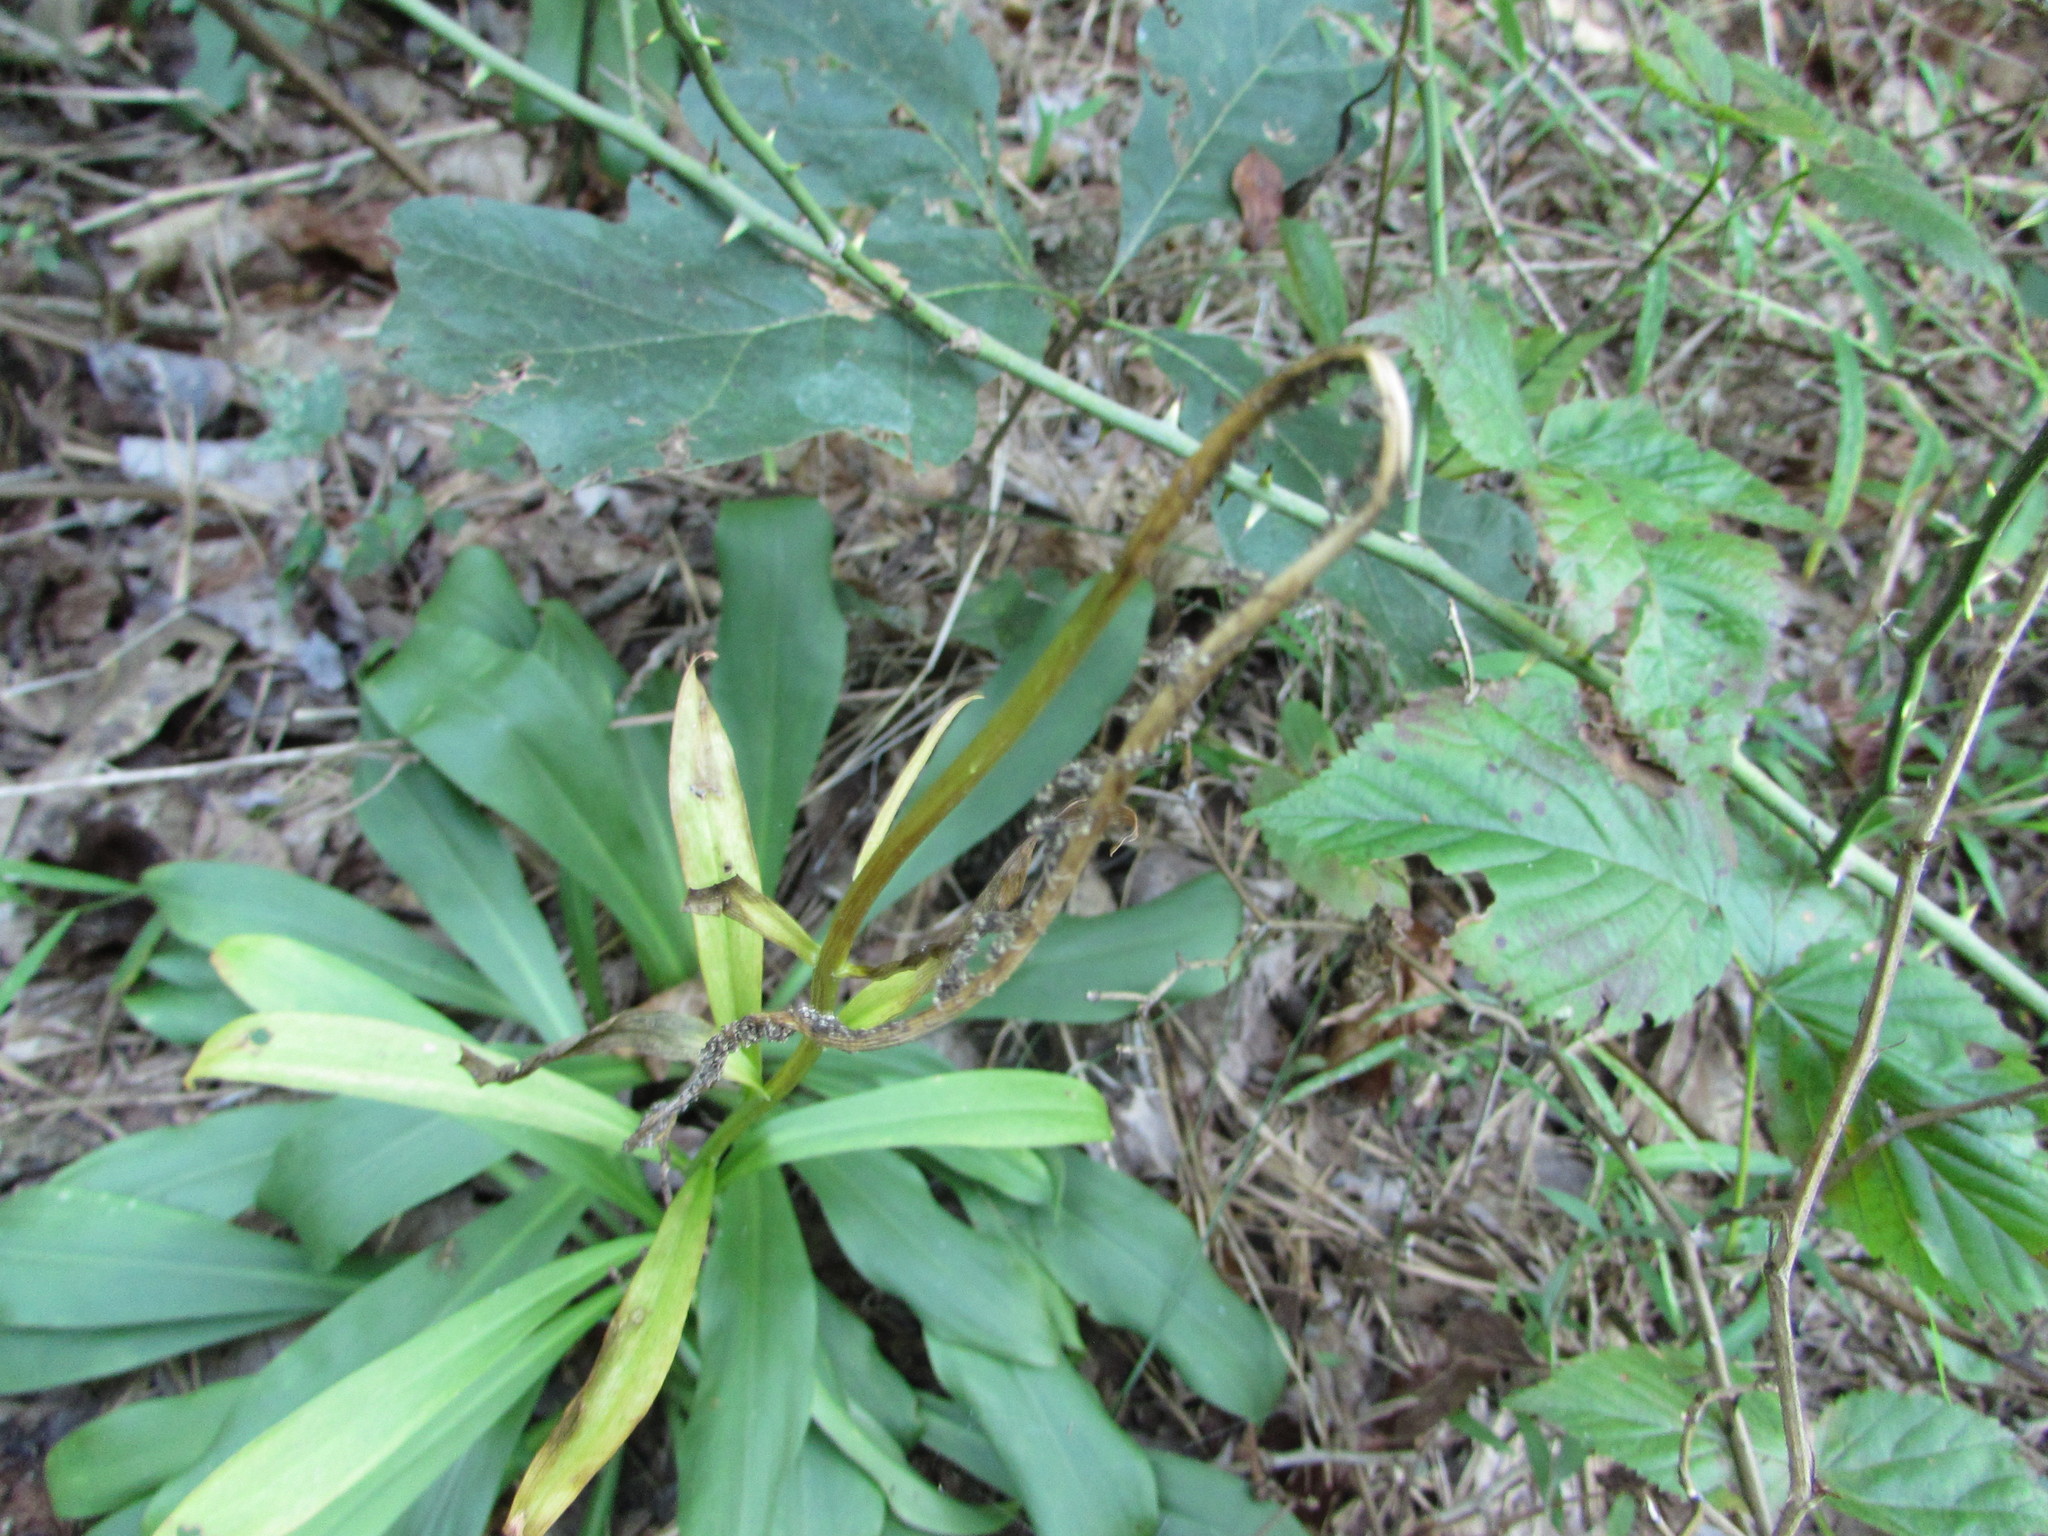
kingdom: Plantae
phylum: Tracheophyta
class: Liliopsida
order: Liliales
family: Melanthiaceae
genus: Chamaelirium
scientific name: Chamaelirium luteum
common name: Fairy-wand
